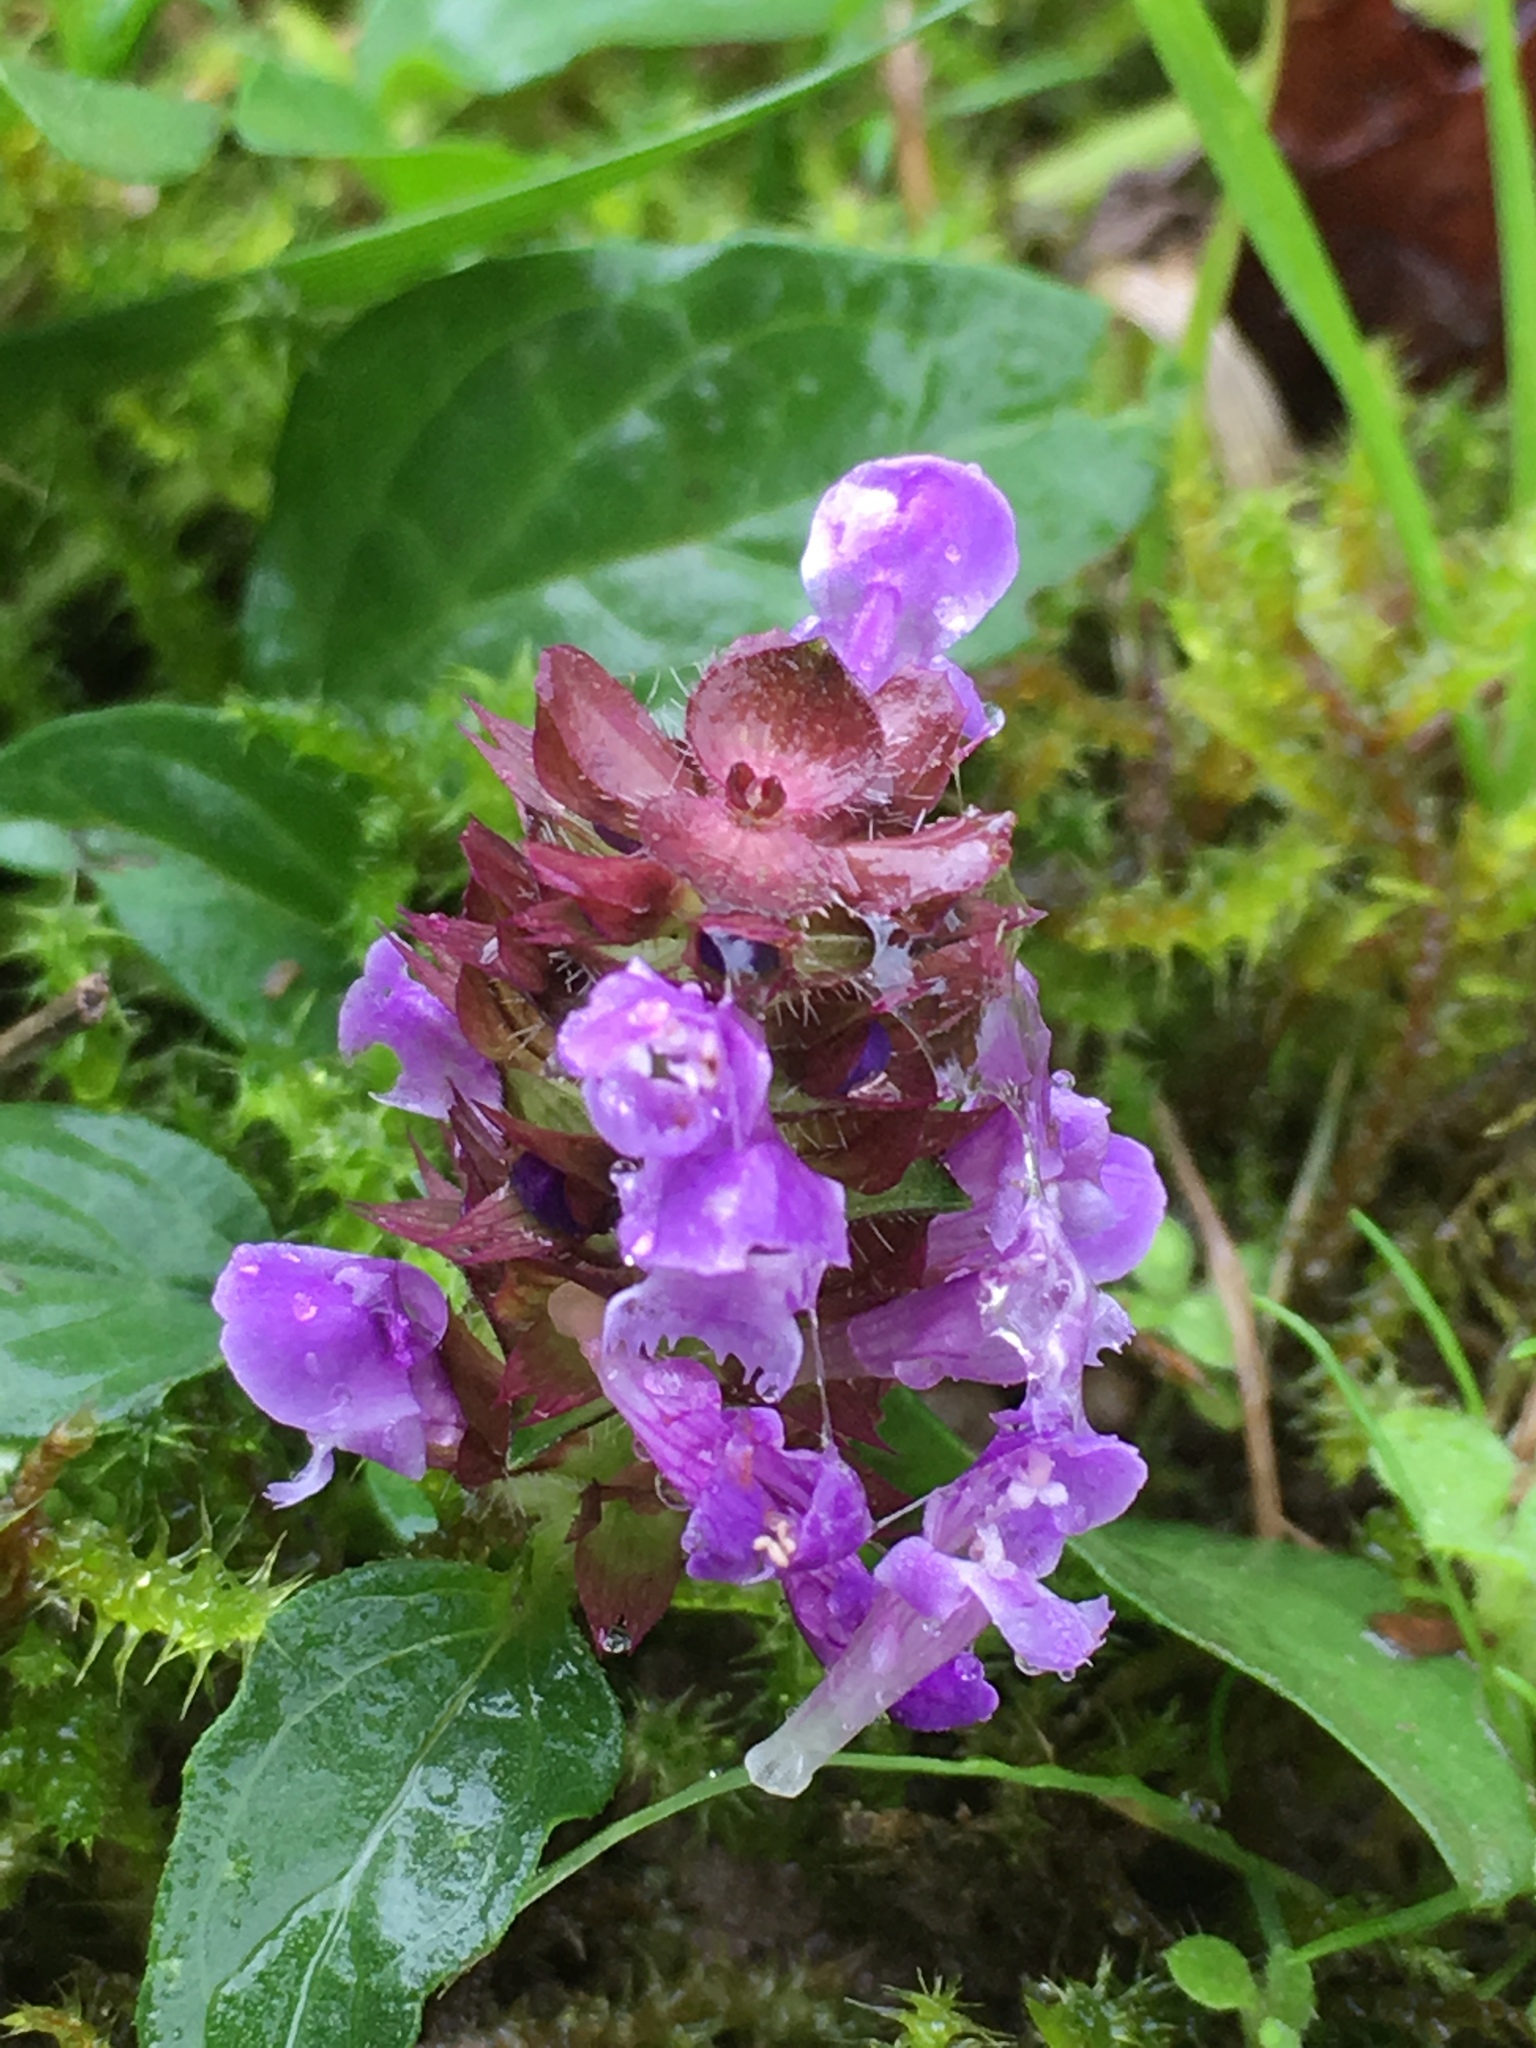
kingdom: Plantae
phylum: Tracheophyta
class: Magnoliopsida
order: Lamiales
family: Lamiaceae
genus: Prunella
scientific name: Prunella vulgaris
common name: Heal-all
